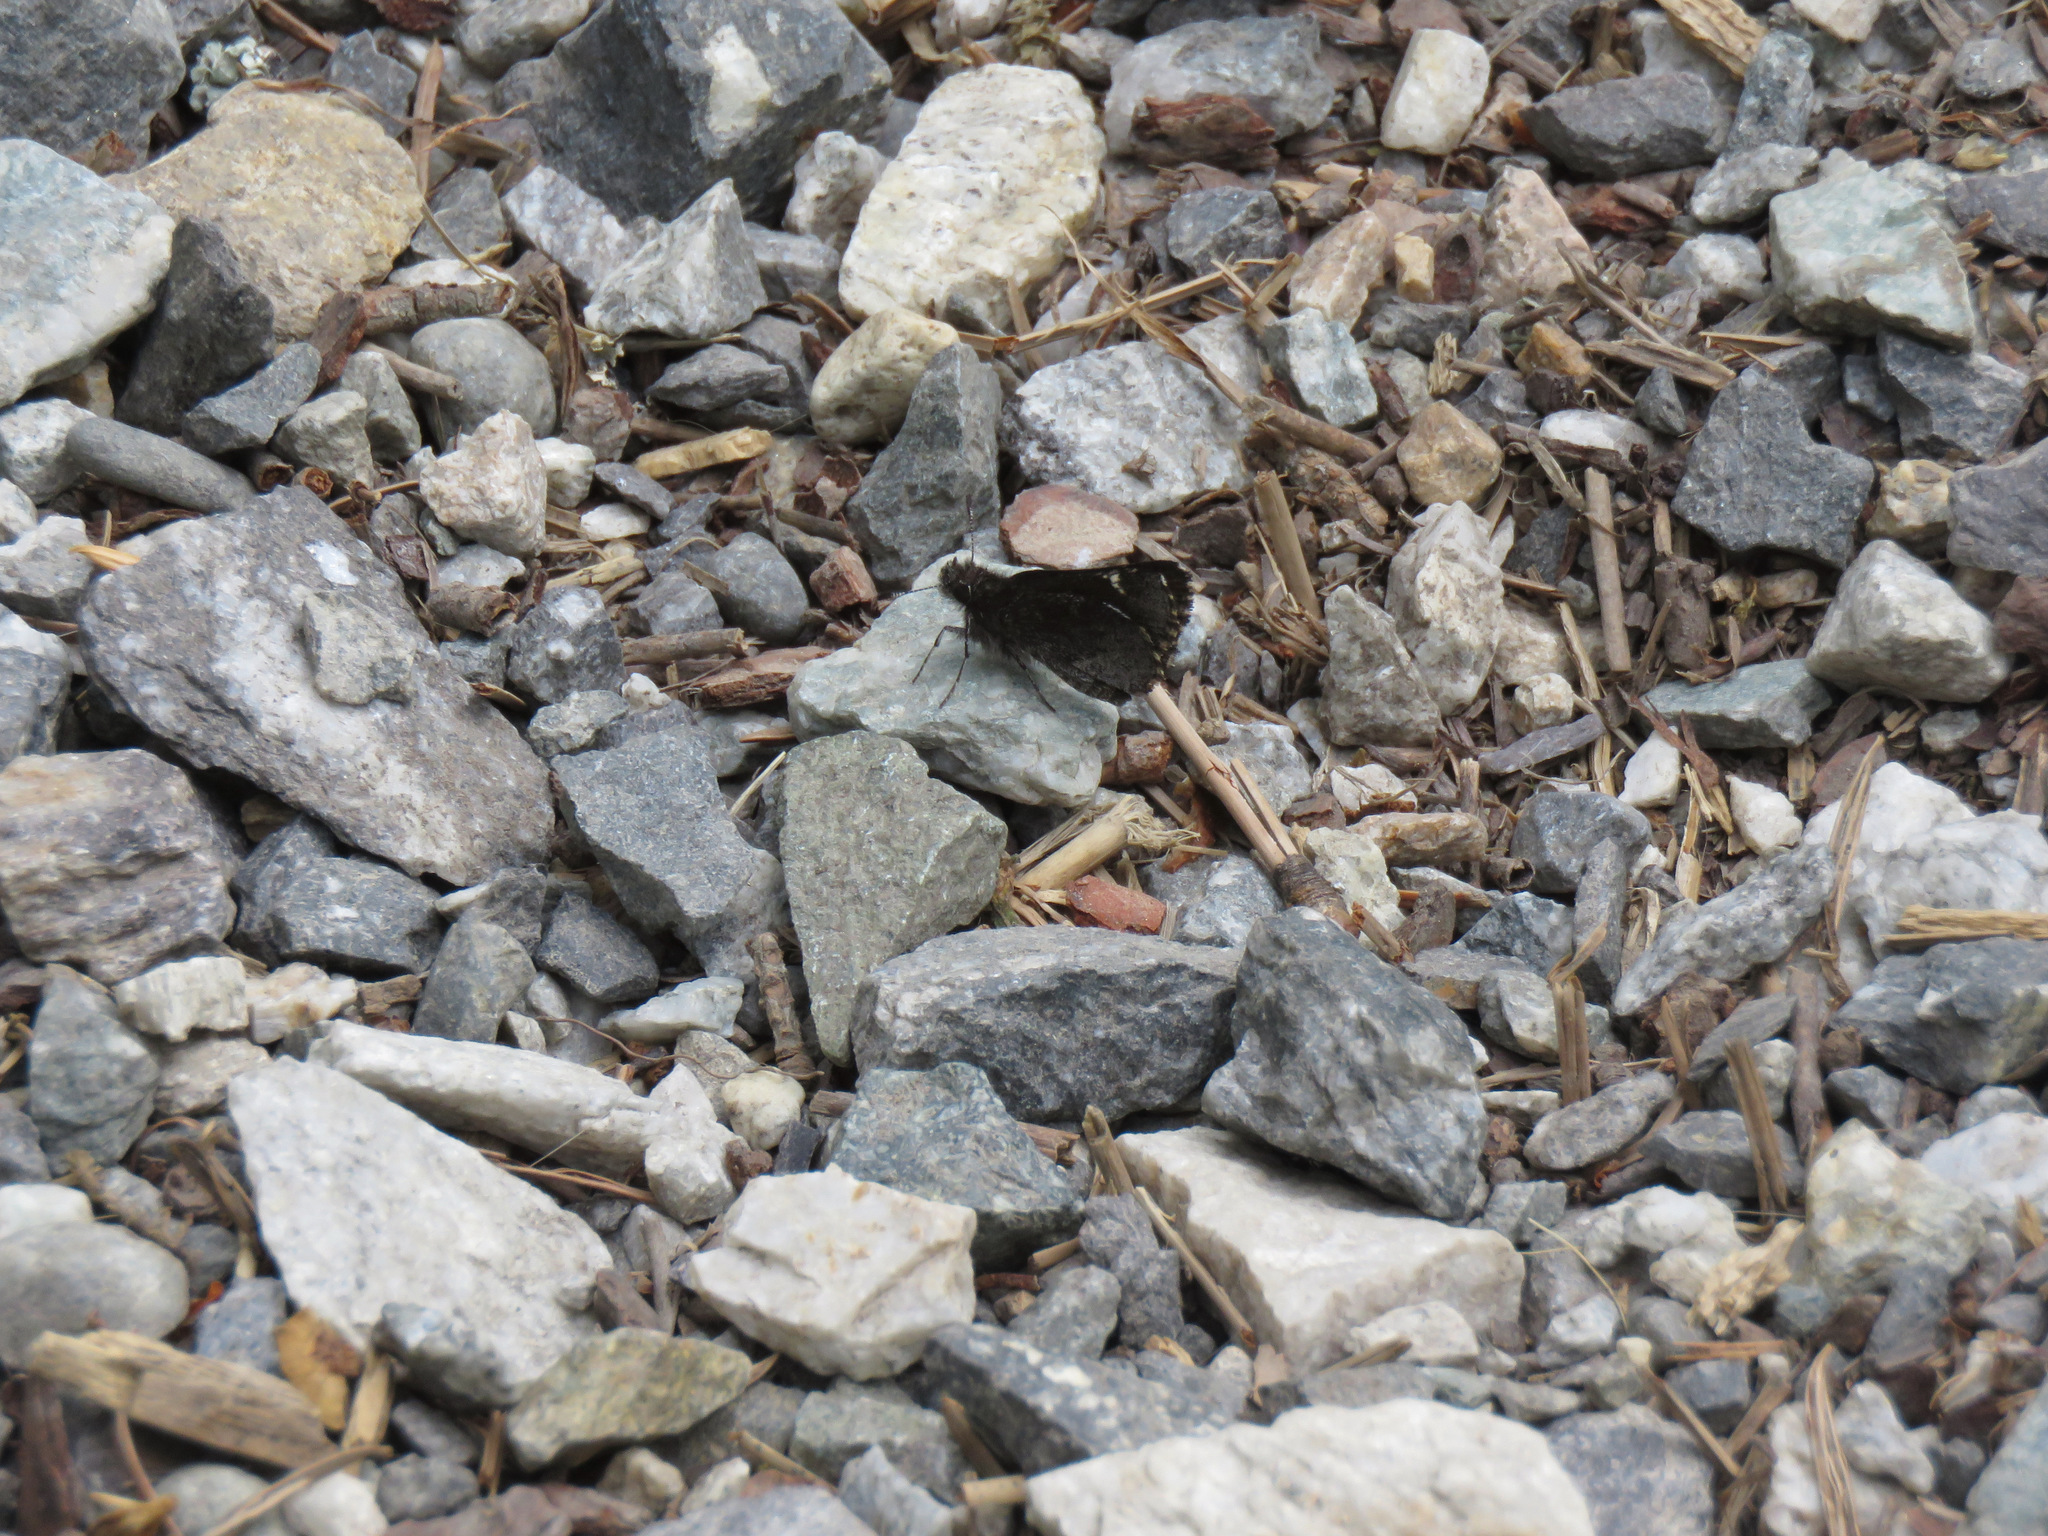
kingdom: Animalia
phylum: Arthropoda
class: Insecta
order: Lepidoptera
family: Hesperiidae
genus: Mastor
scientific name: Mastor vialis
